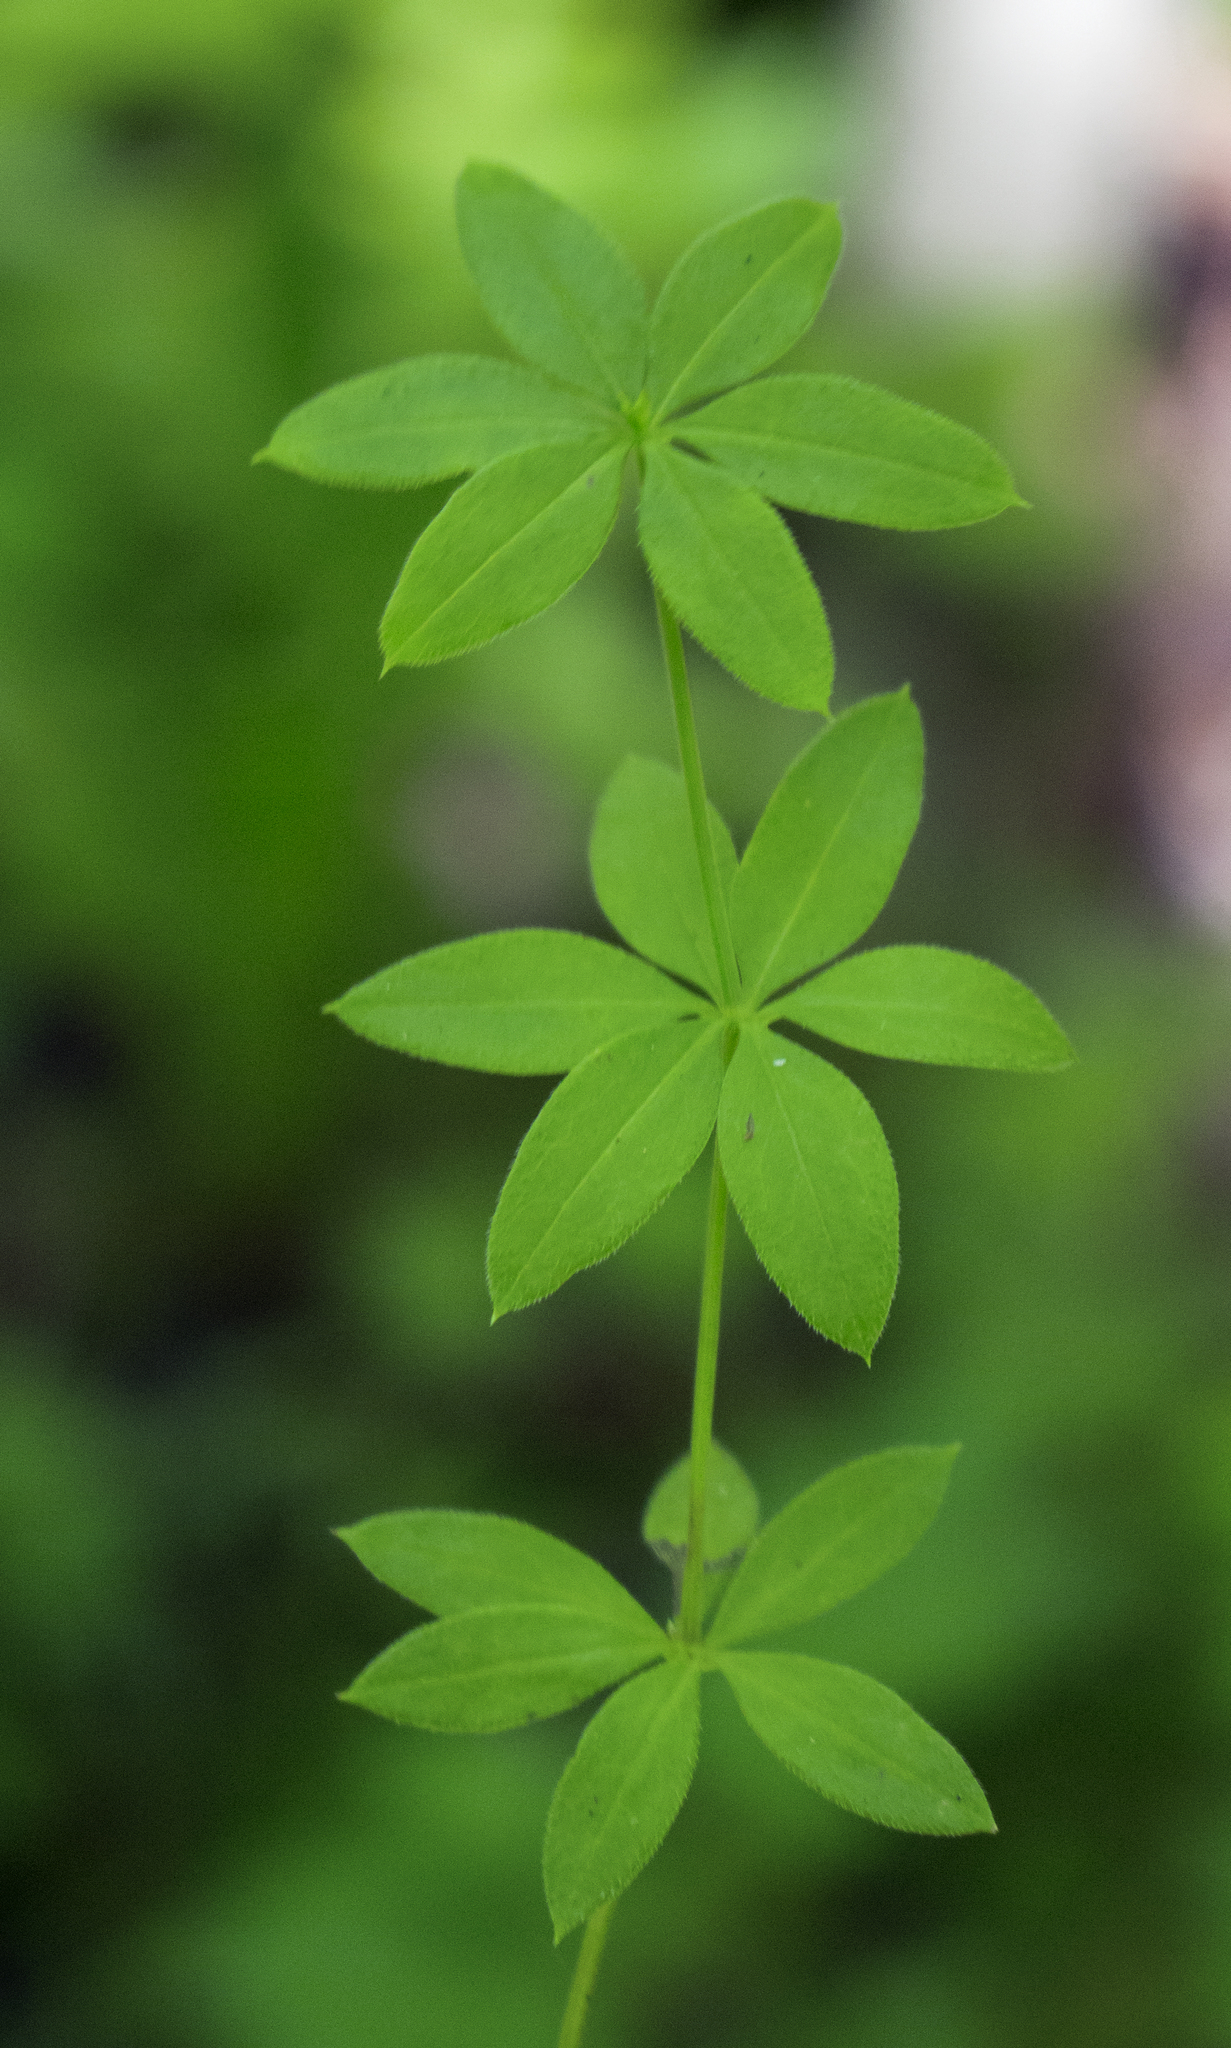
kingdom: Plantae
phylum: Tracheophyta
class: Magnoliopsida
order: Gentianales
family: Rubiaceae
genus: Galium
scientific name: Galium triflorum
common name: Fragrant bedstraw
